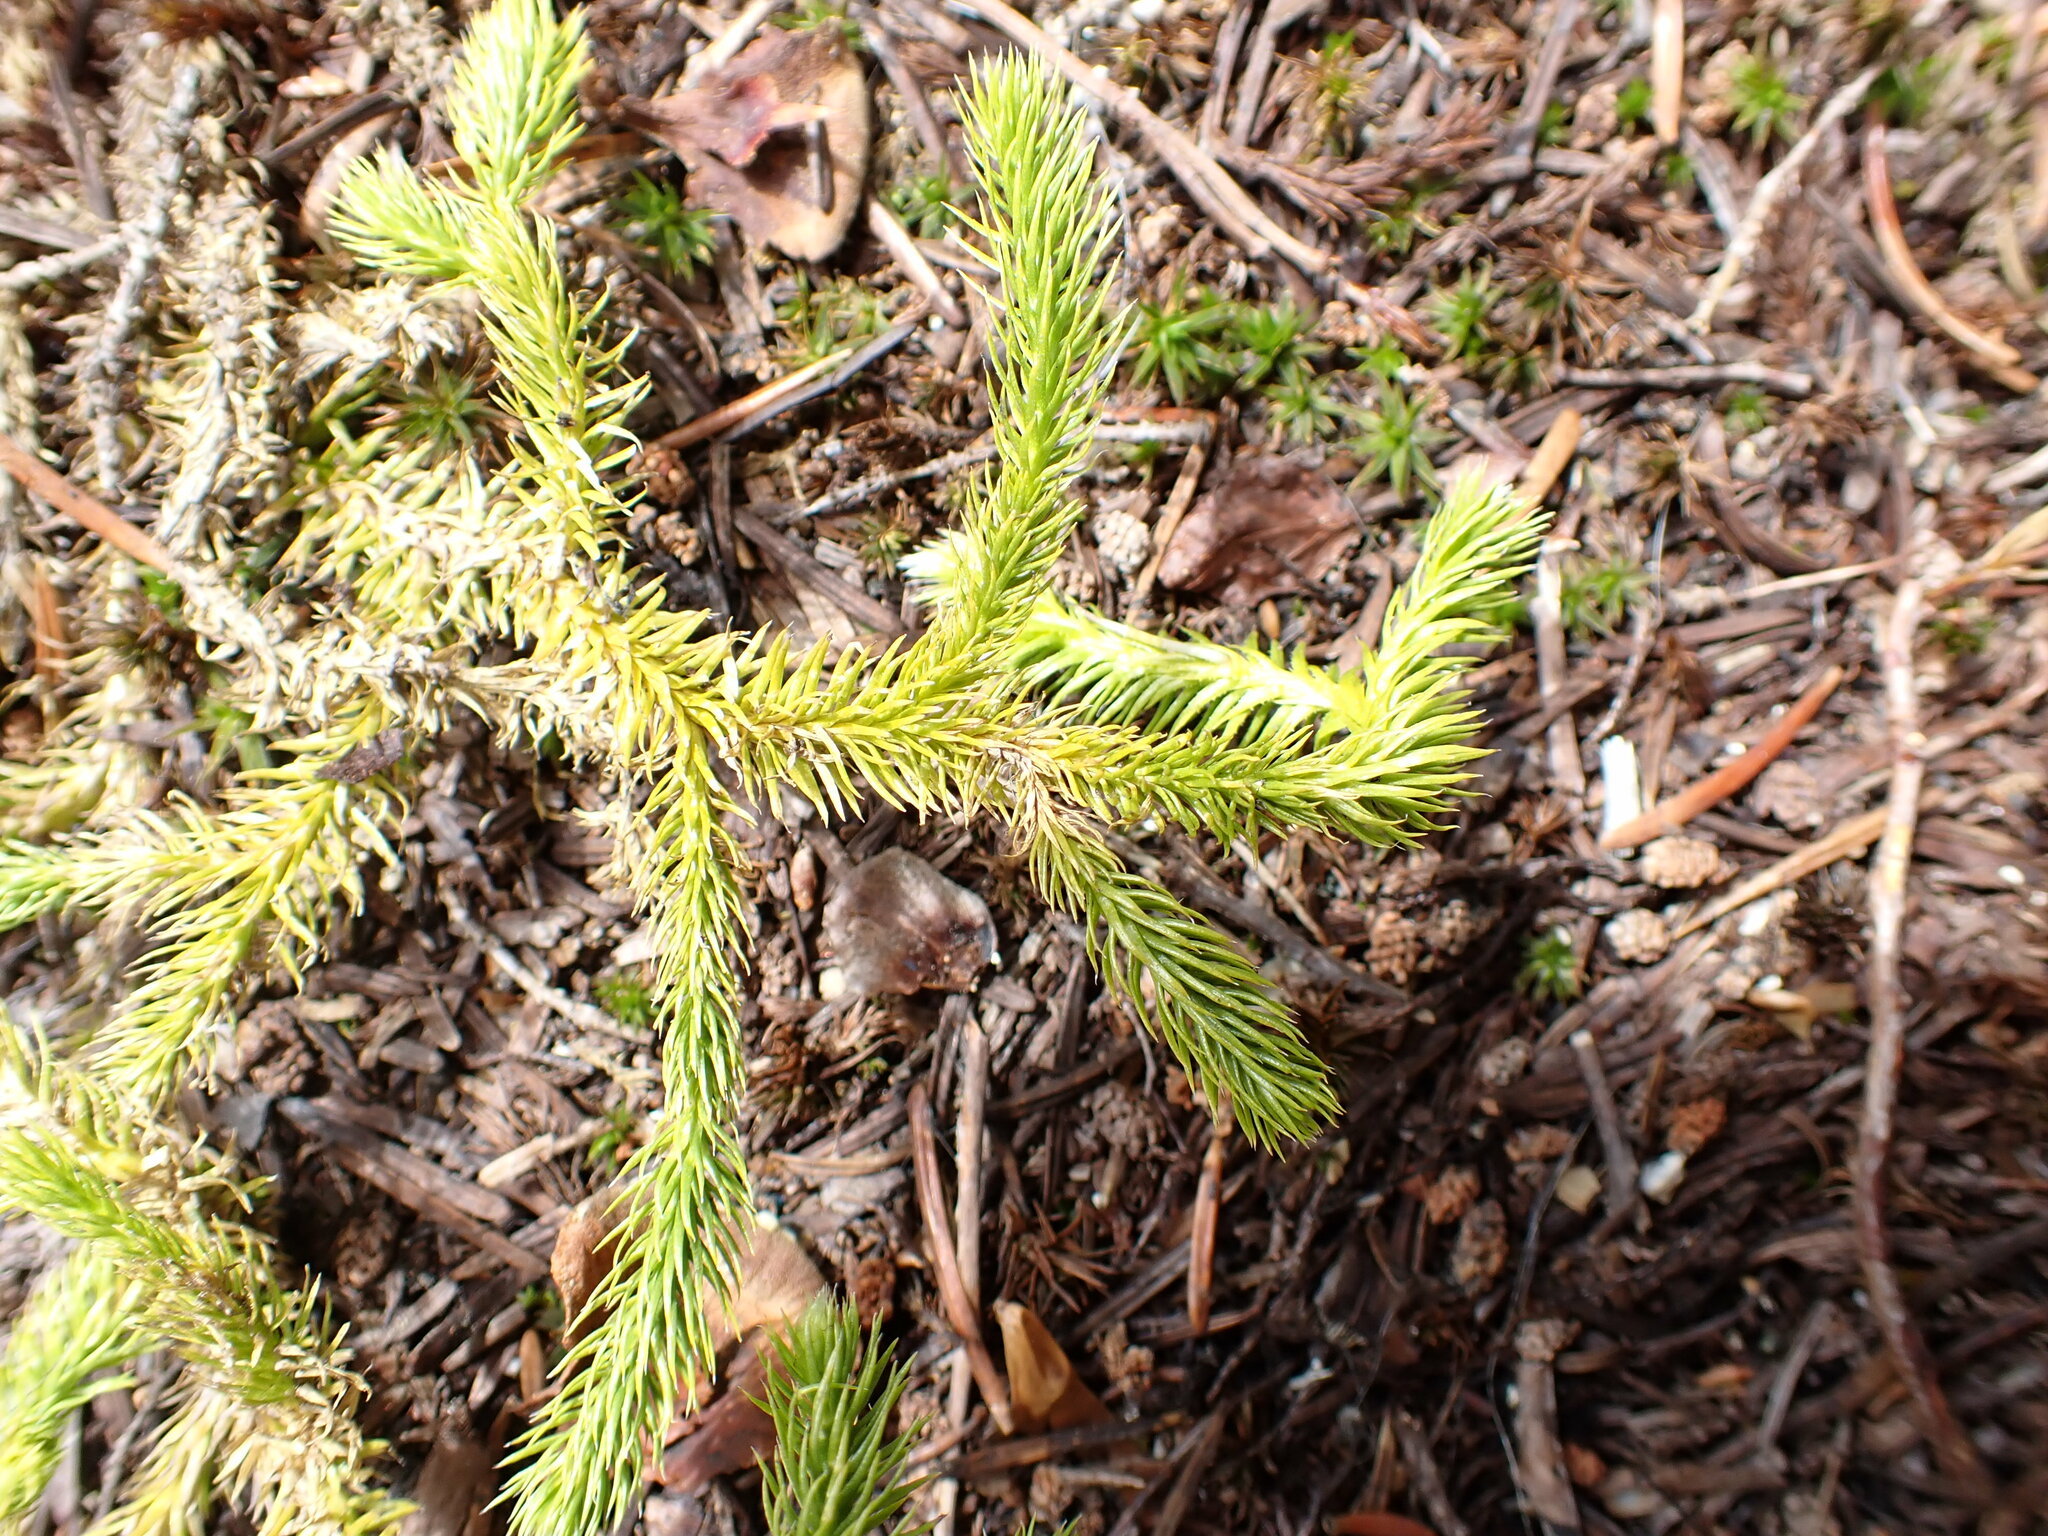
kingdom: Plantae
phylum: Tracheophyta
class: Lycopodiopsida
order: Lycopodiales
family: Lycopodiaceae
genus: Lycopodium
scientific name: Lycopodium clavatum
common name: Stag's-horn clubmoss
